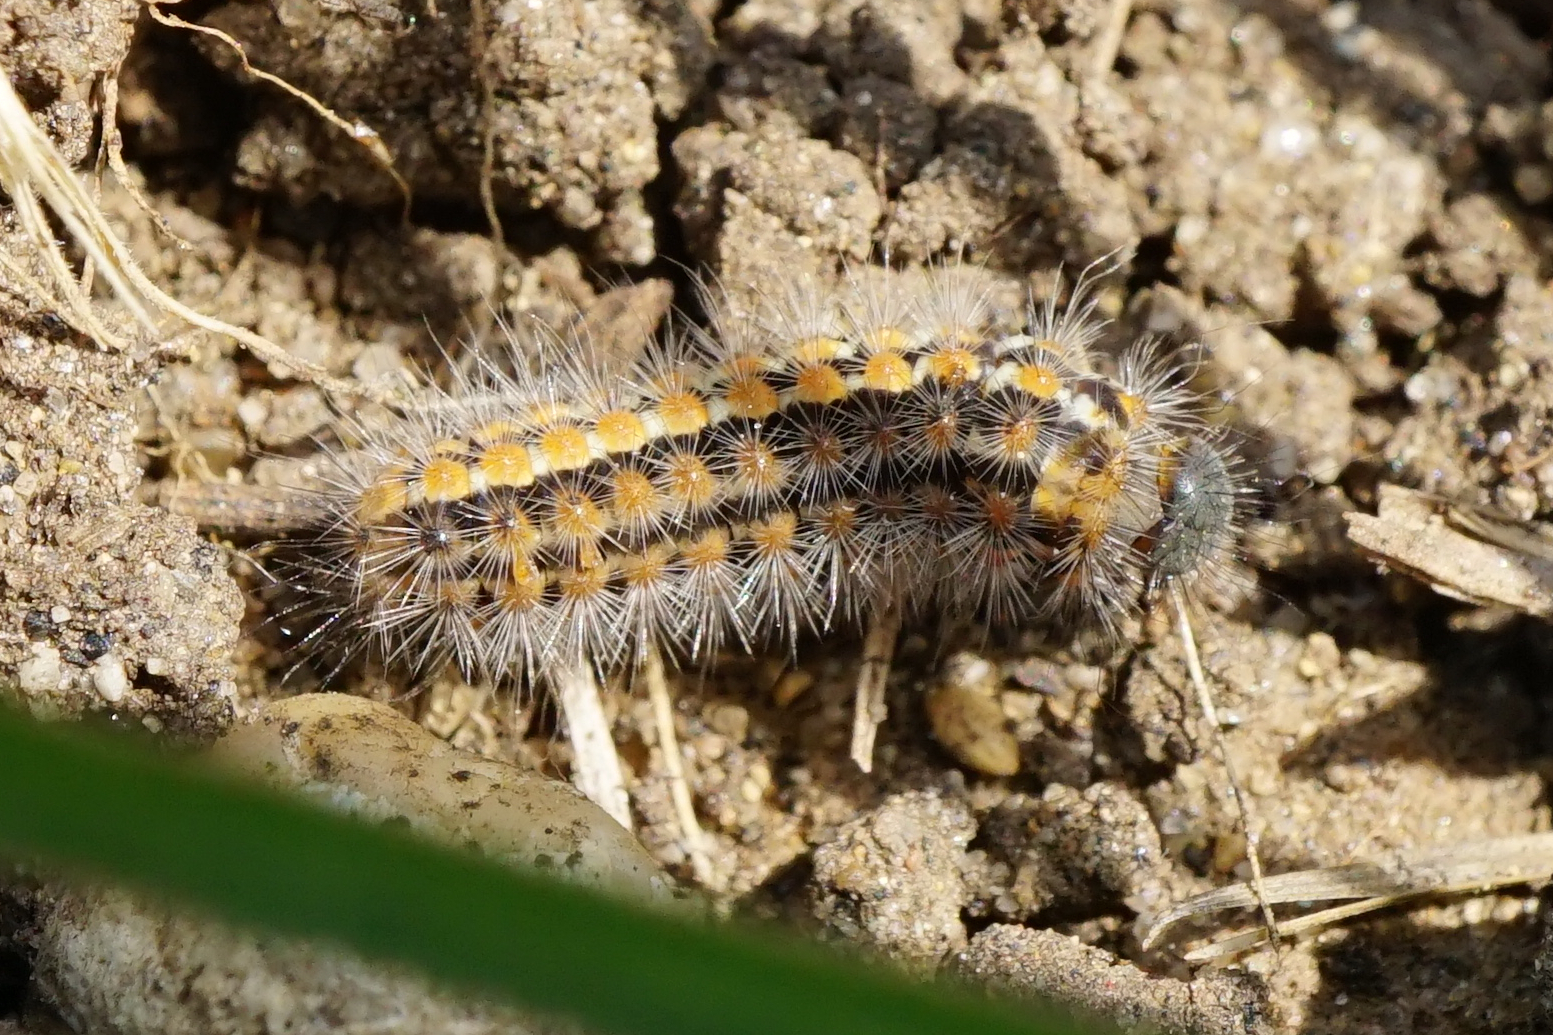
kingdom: Animalia
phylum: Arthropoda
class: Insecta
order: Lepidoptera
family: Erebidae
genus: Penthophera
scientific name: Penthophera morio
